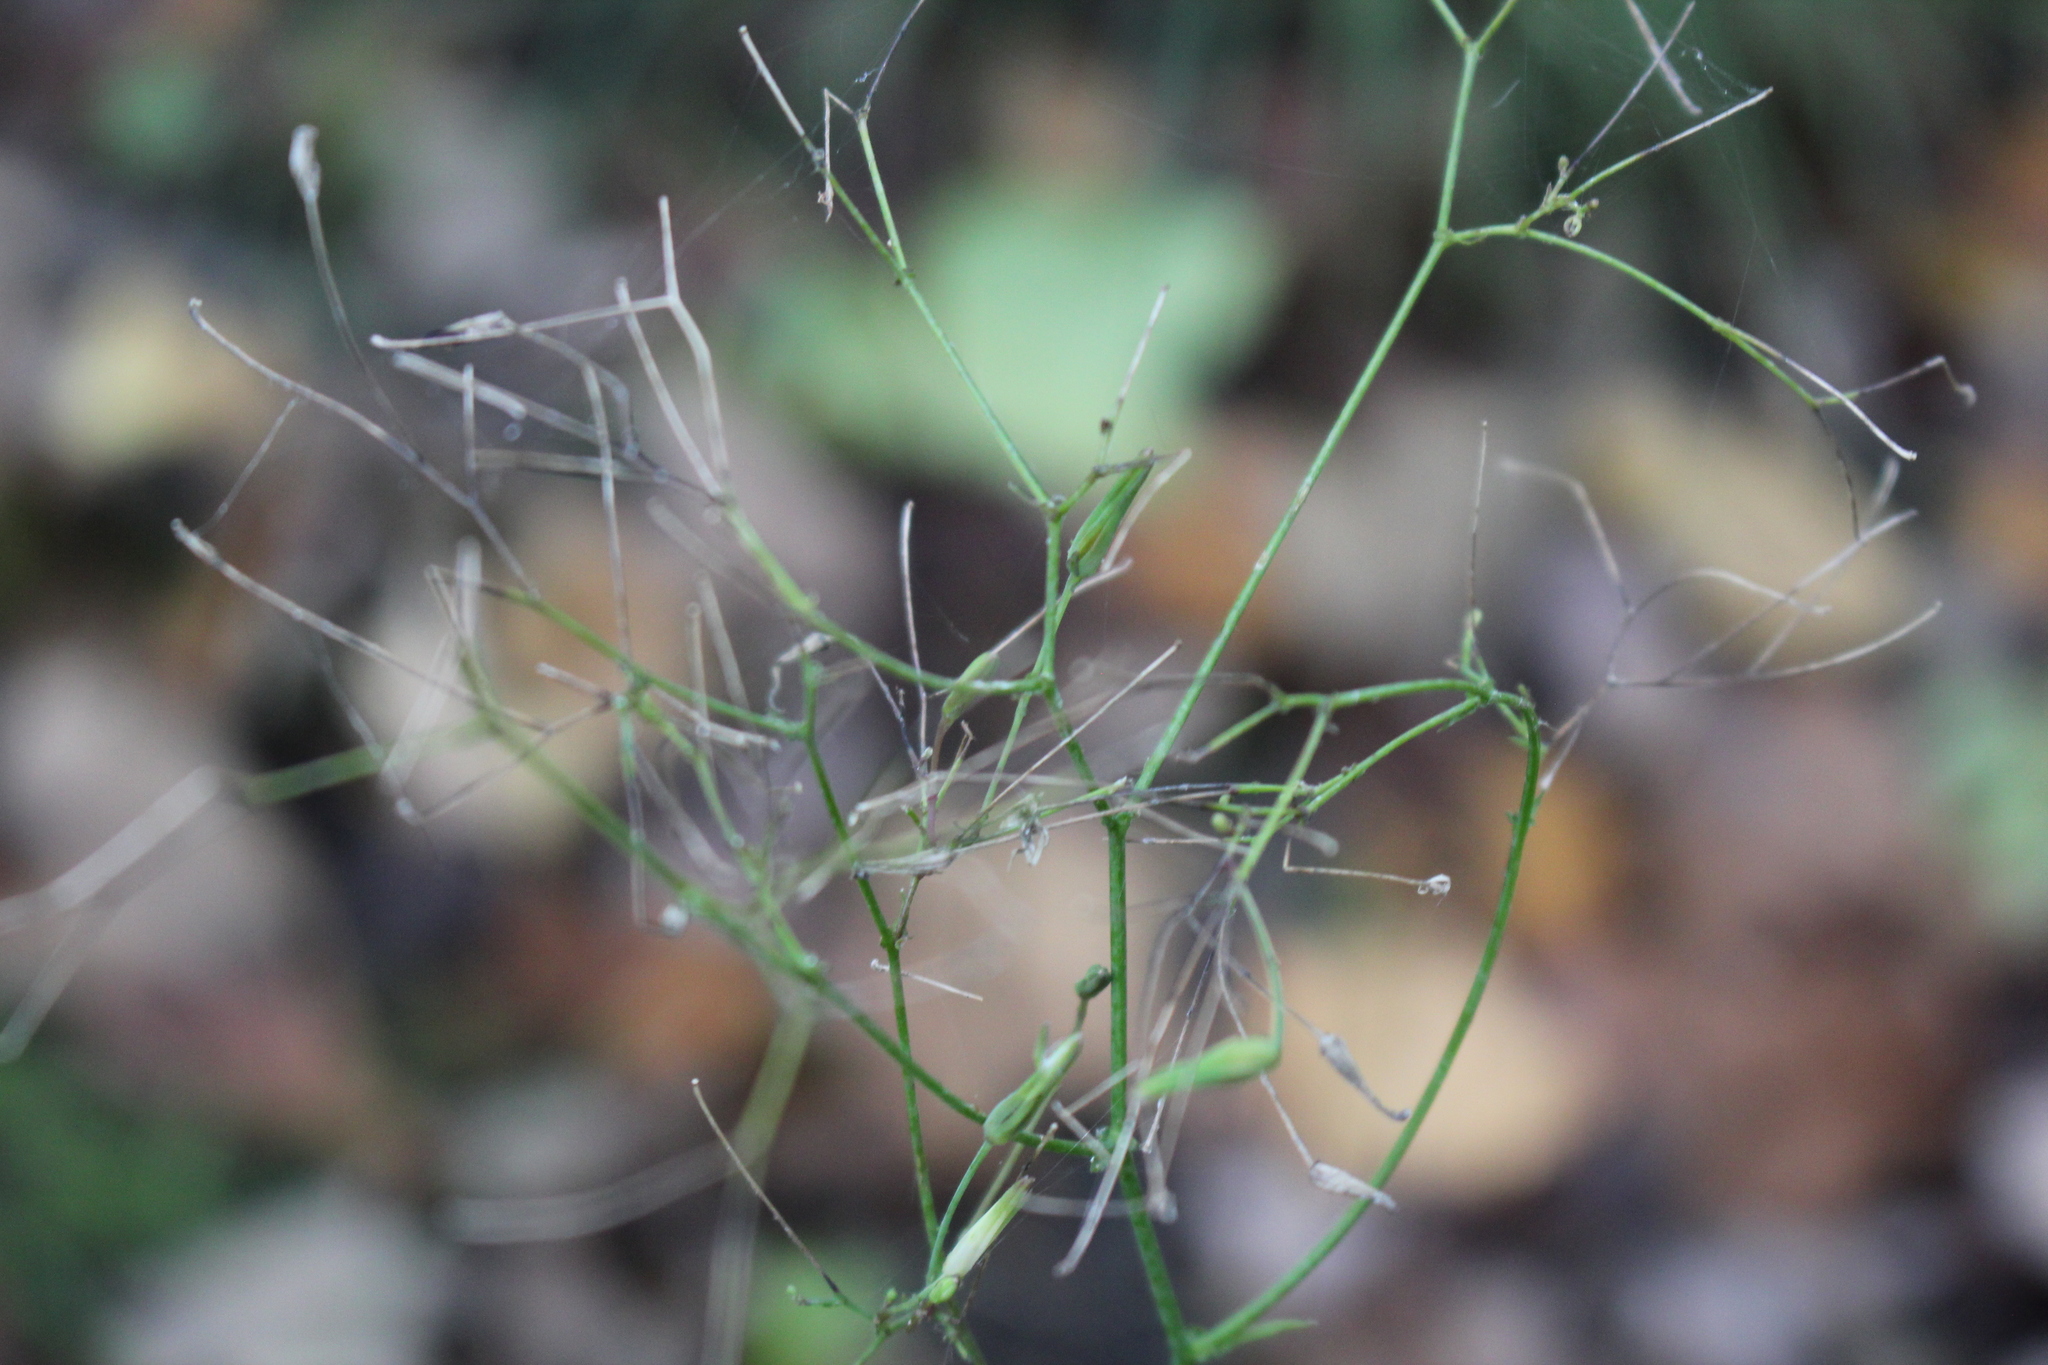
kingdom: Plantae
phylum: Tracheophyta
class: Magnoliopsida
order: Asterales
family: Asteraceae
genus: Mycelis
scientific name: Mycelis muralis
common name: Wall lettuce
